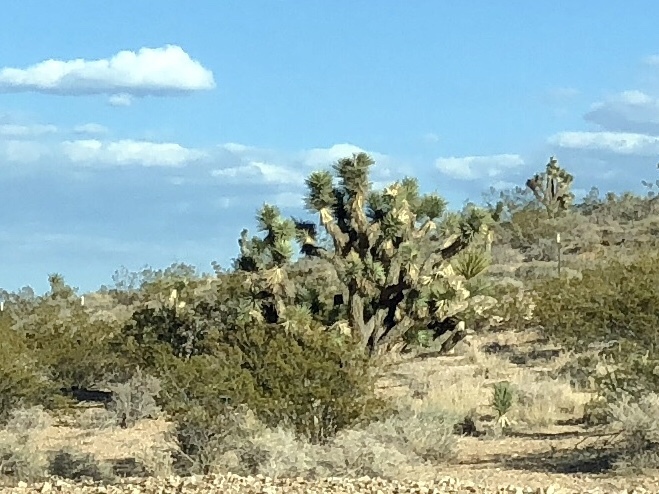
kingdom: Plantae
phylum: Tracheophyta
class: Liliopsida
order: Asparagales
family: Asparagaceae
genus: Yucca
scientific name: Yucca brevifolia
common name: Joshua tree
